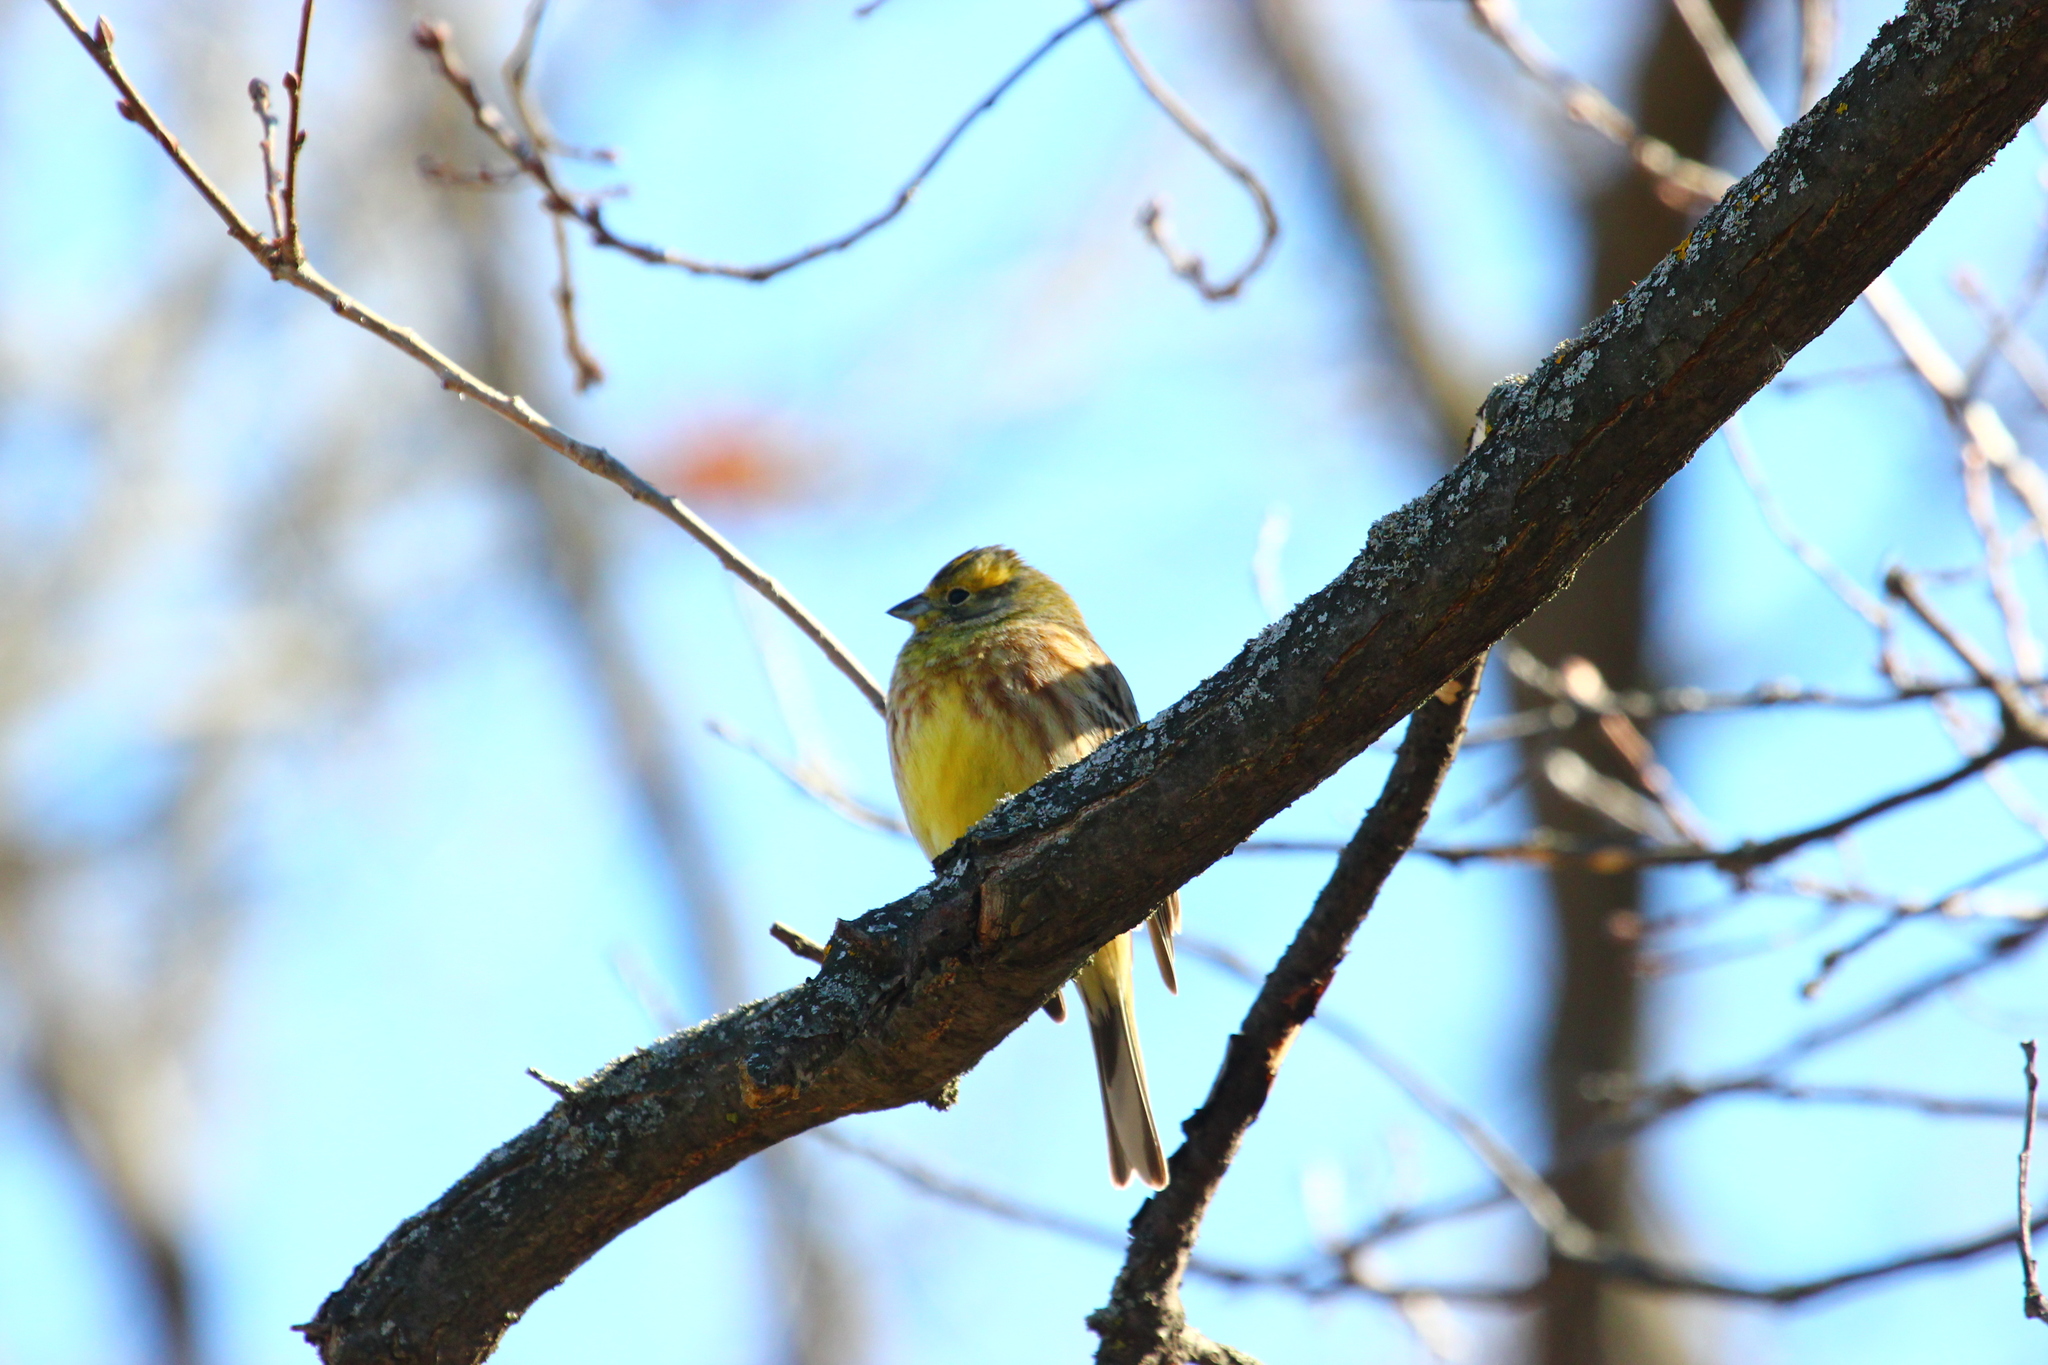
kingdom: Animalia
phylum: Chordata
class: Aves
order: Passeriformes
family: Emberizidae
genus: Emberiza
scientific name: Emberiza citrinella
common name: Yellowhammer
